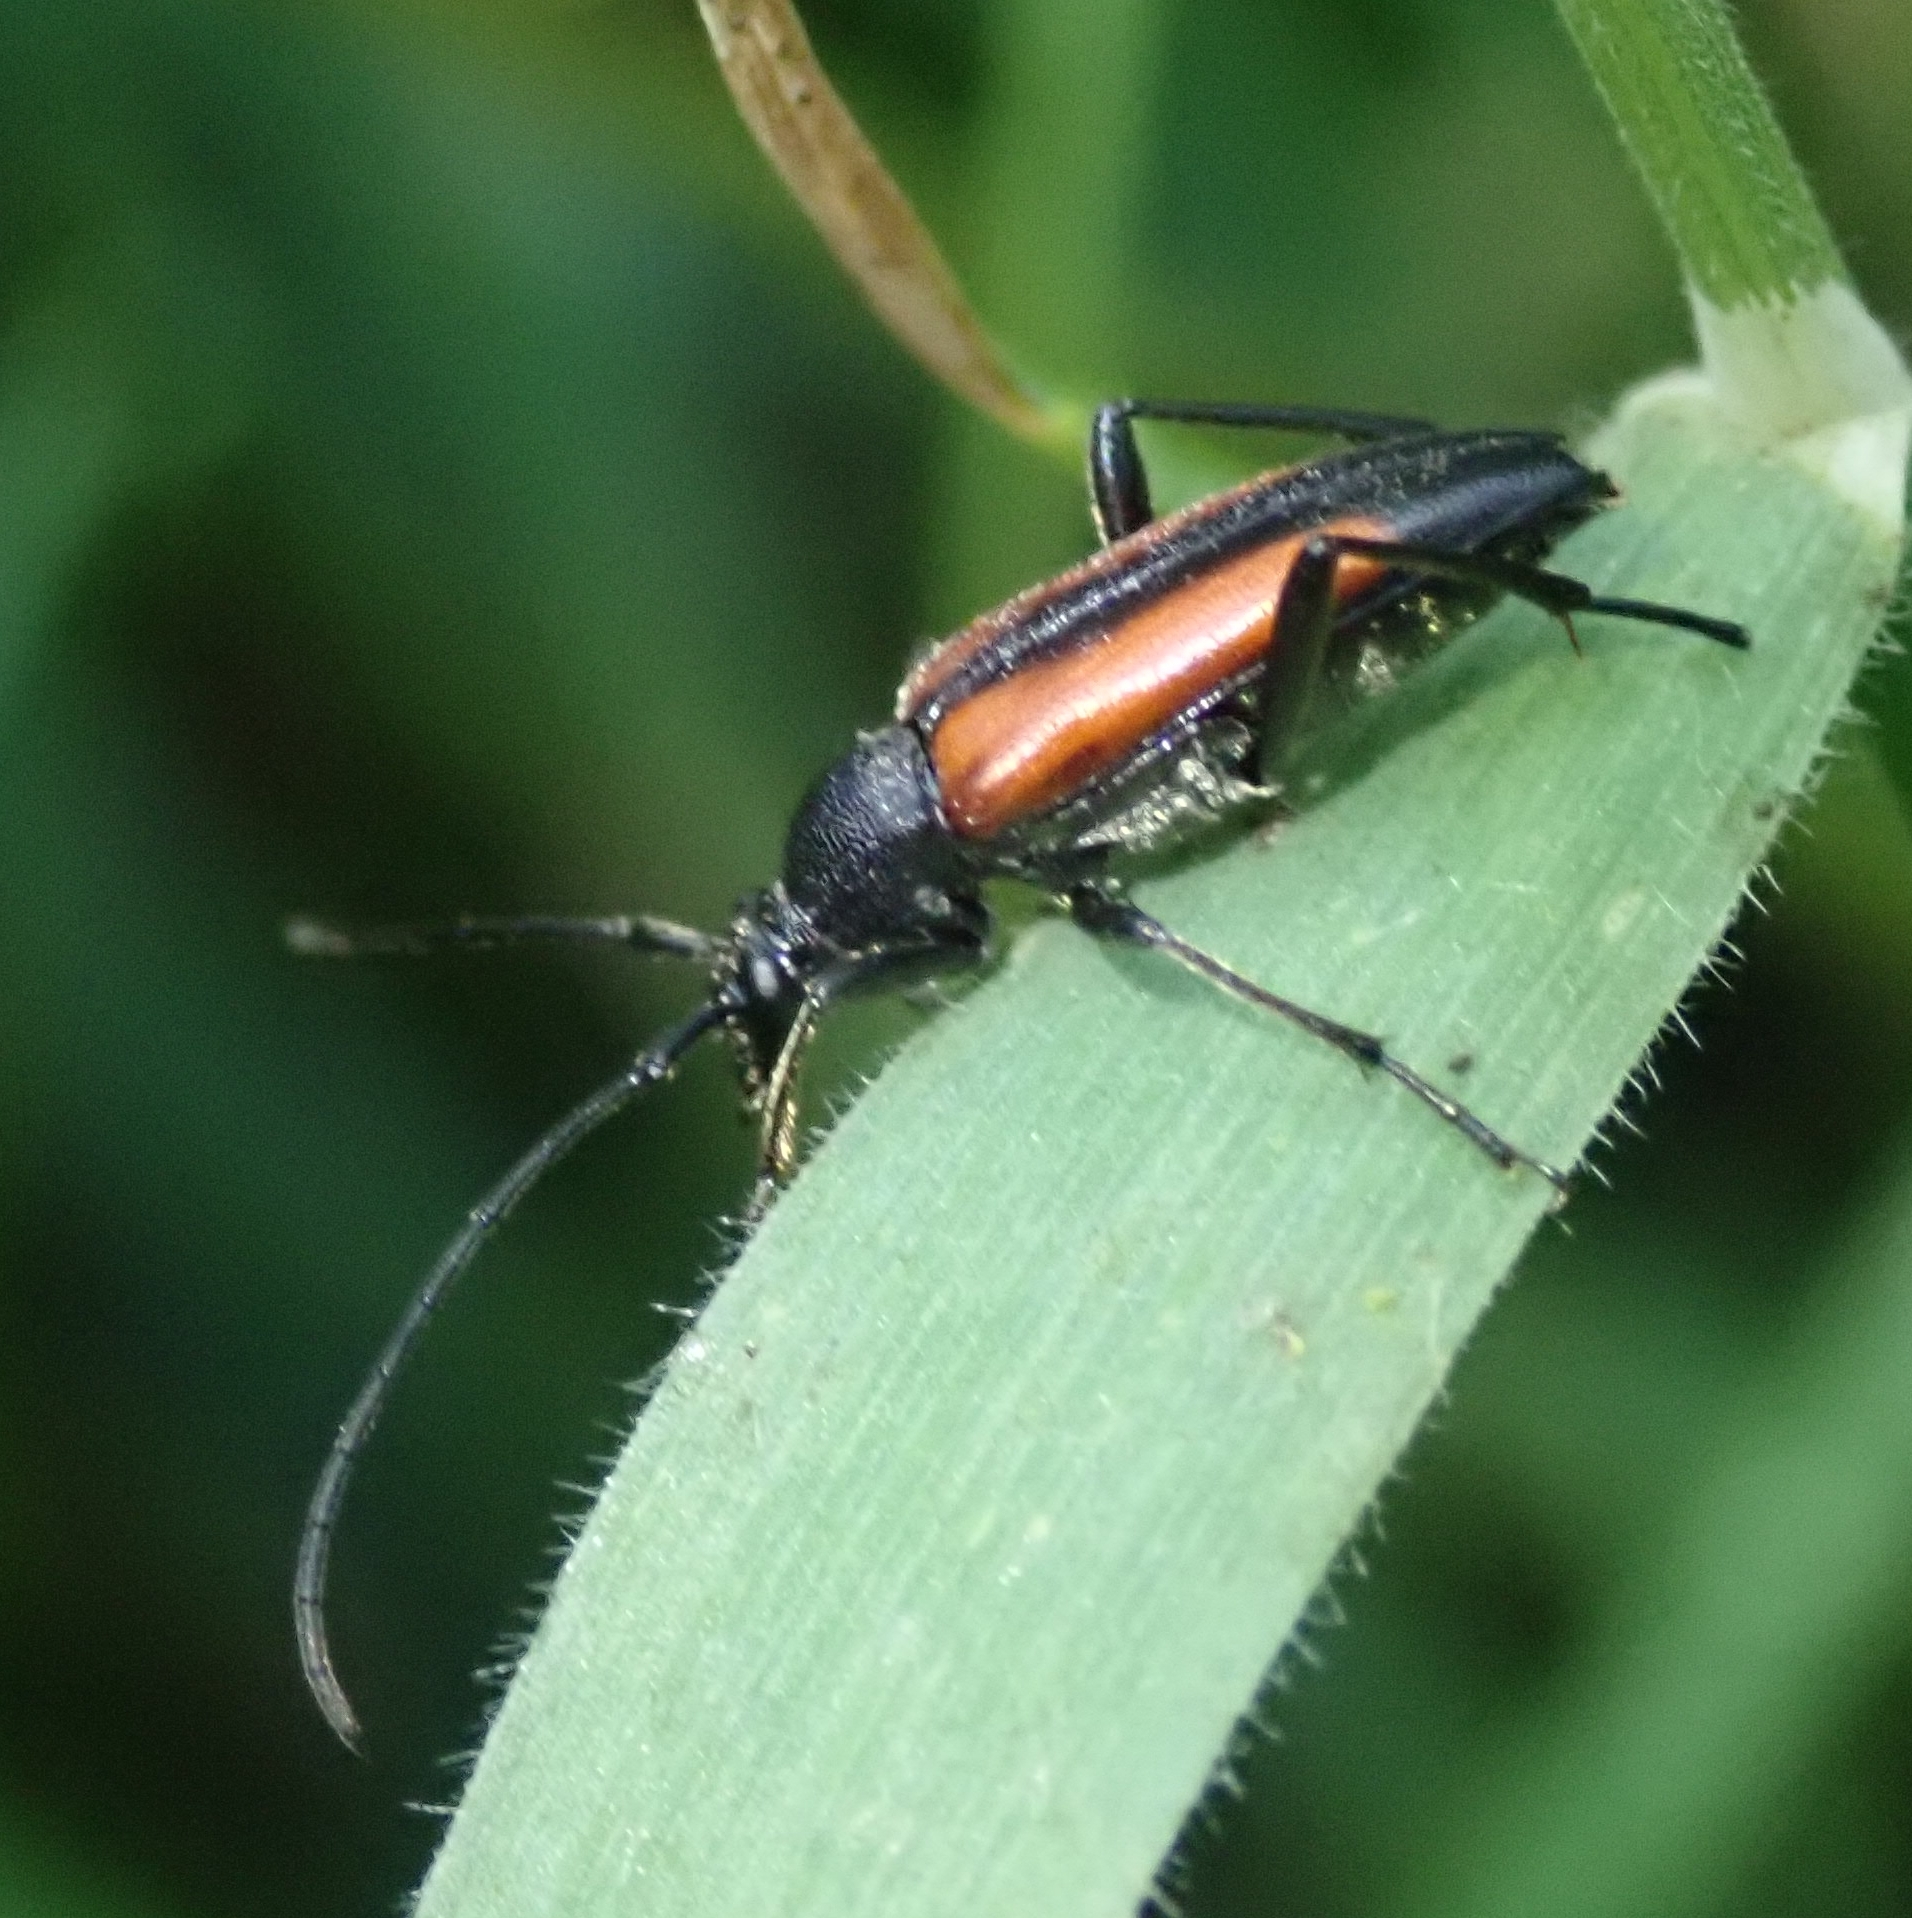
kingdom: Animalia
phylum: Arthropoda
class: Insecta
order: Coleoptera
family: Cerambycidae
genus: Stenurella
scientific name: Stenurella melanura
